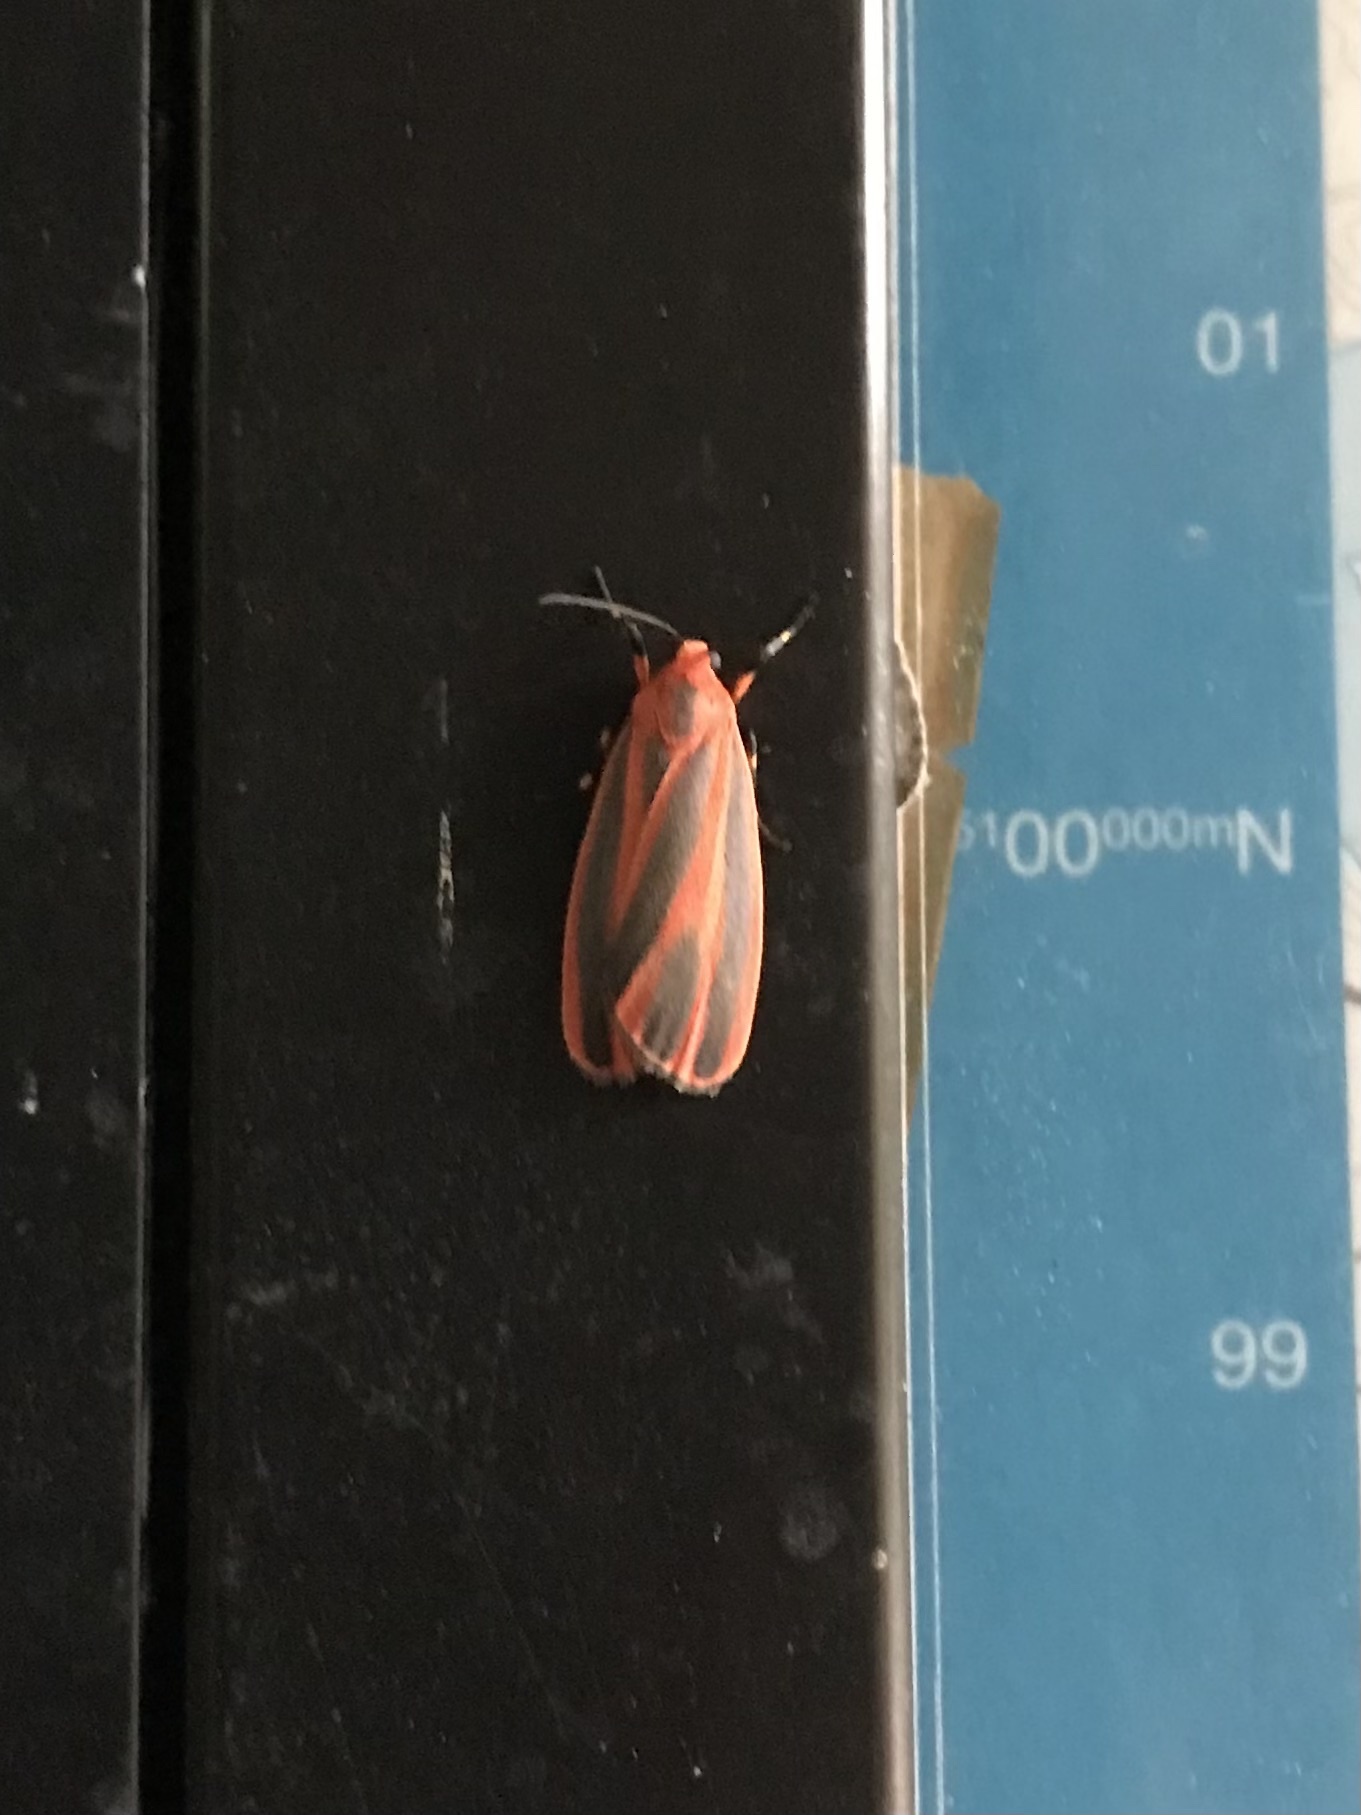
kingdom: Animalia
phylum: Arthropoda
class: Insecta
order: Lepidoptera
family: Erebidae
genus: Hypoprepia
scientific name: Hypoprepia miniata
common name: Scarlet-winged lichen moth
